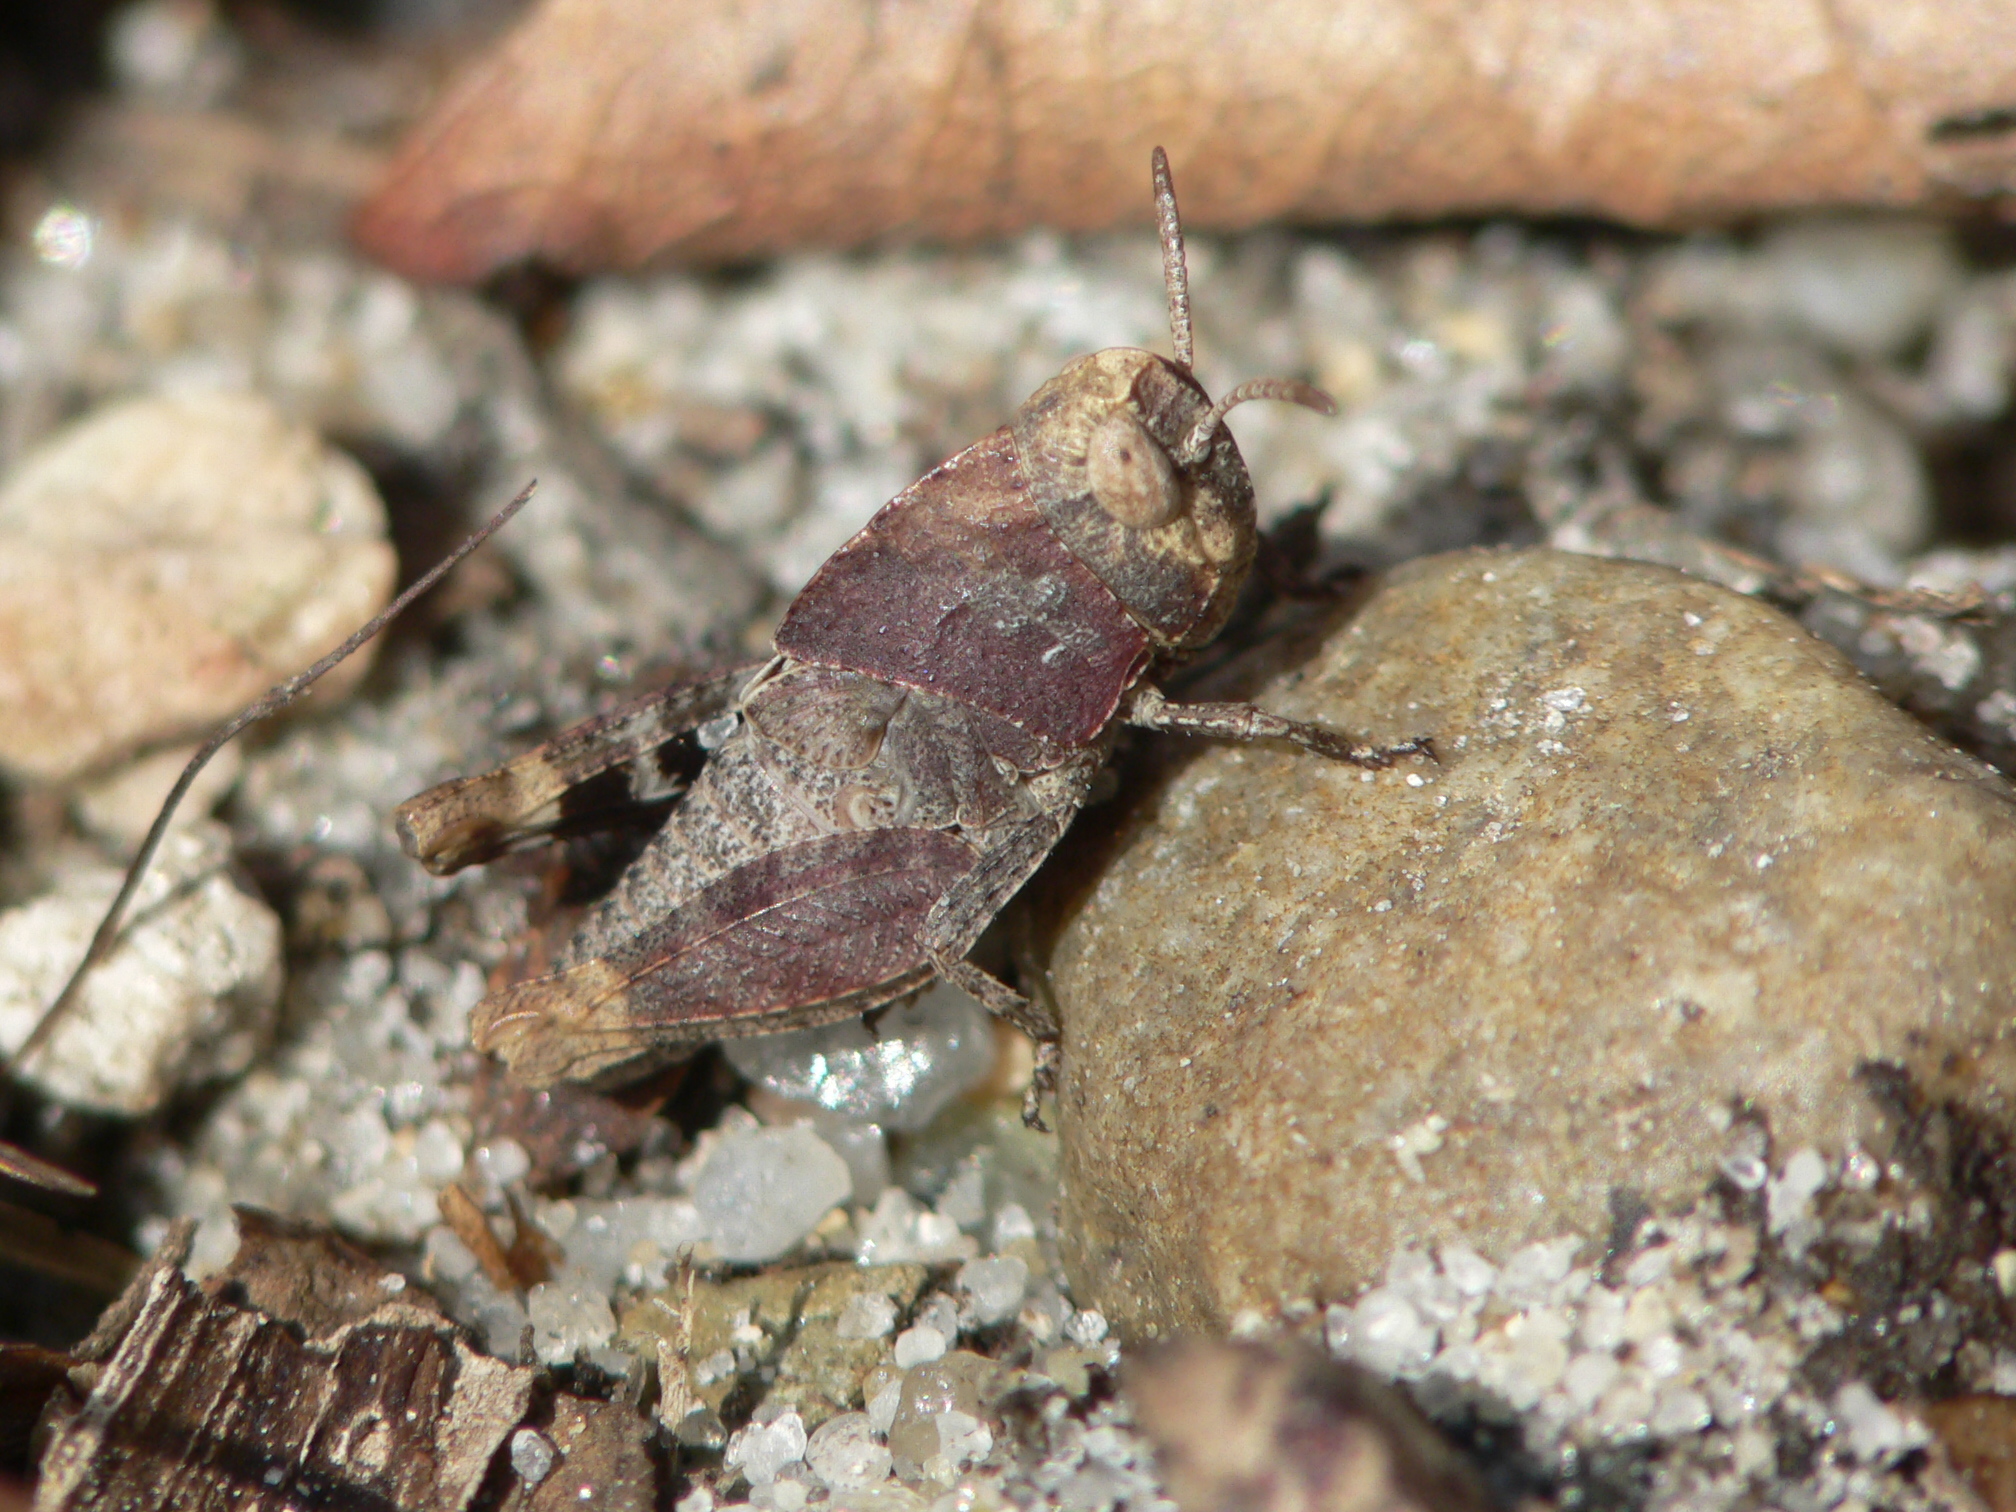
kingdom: Animalia
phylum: Arthropoda
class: Insecta
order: Orthoptera
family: Acrididae
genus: Arphia
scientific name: Arphia sulphurea
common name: Spring yellow-winged locust
